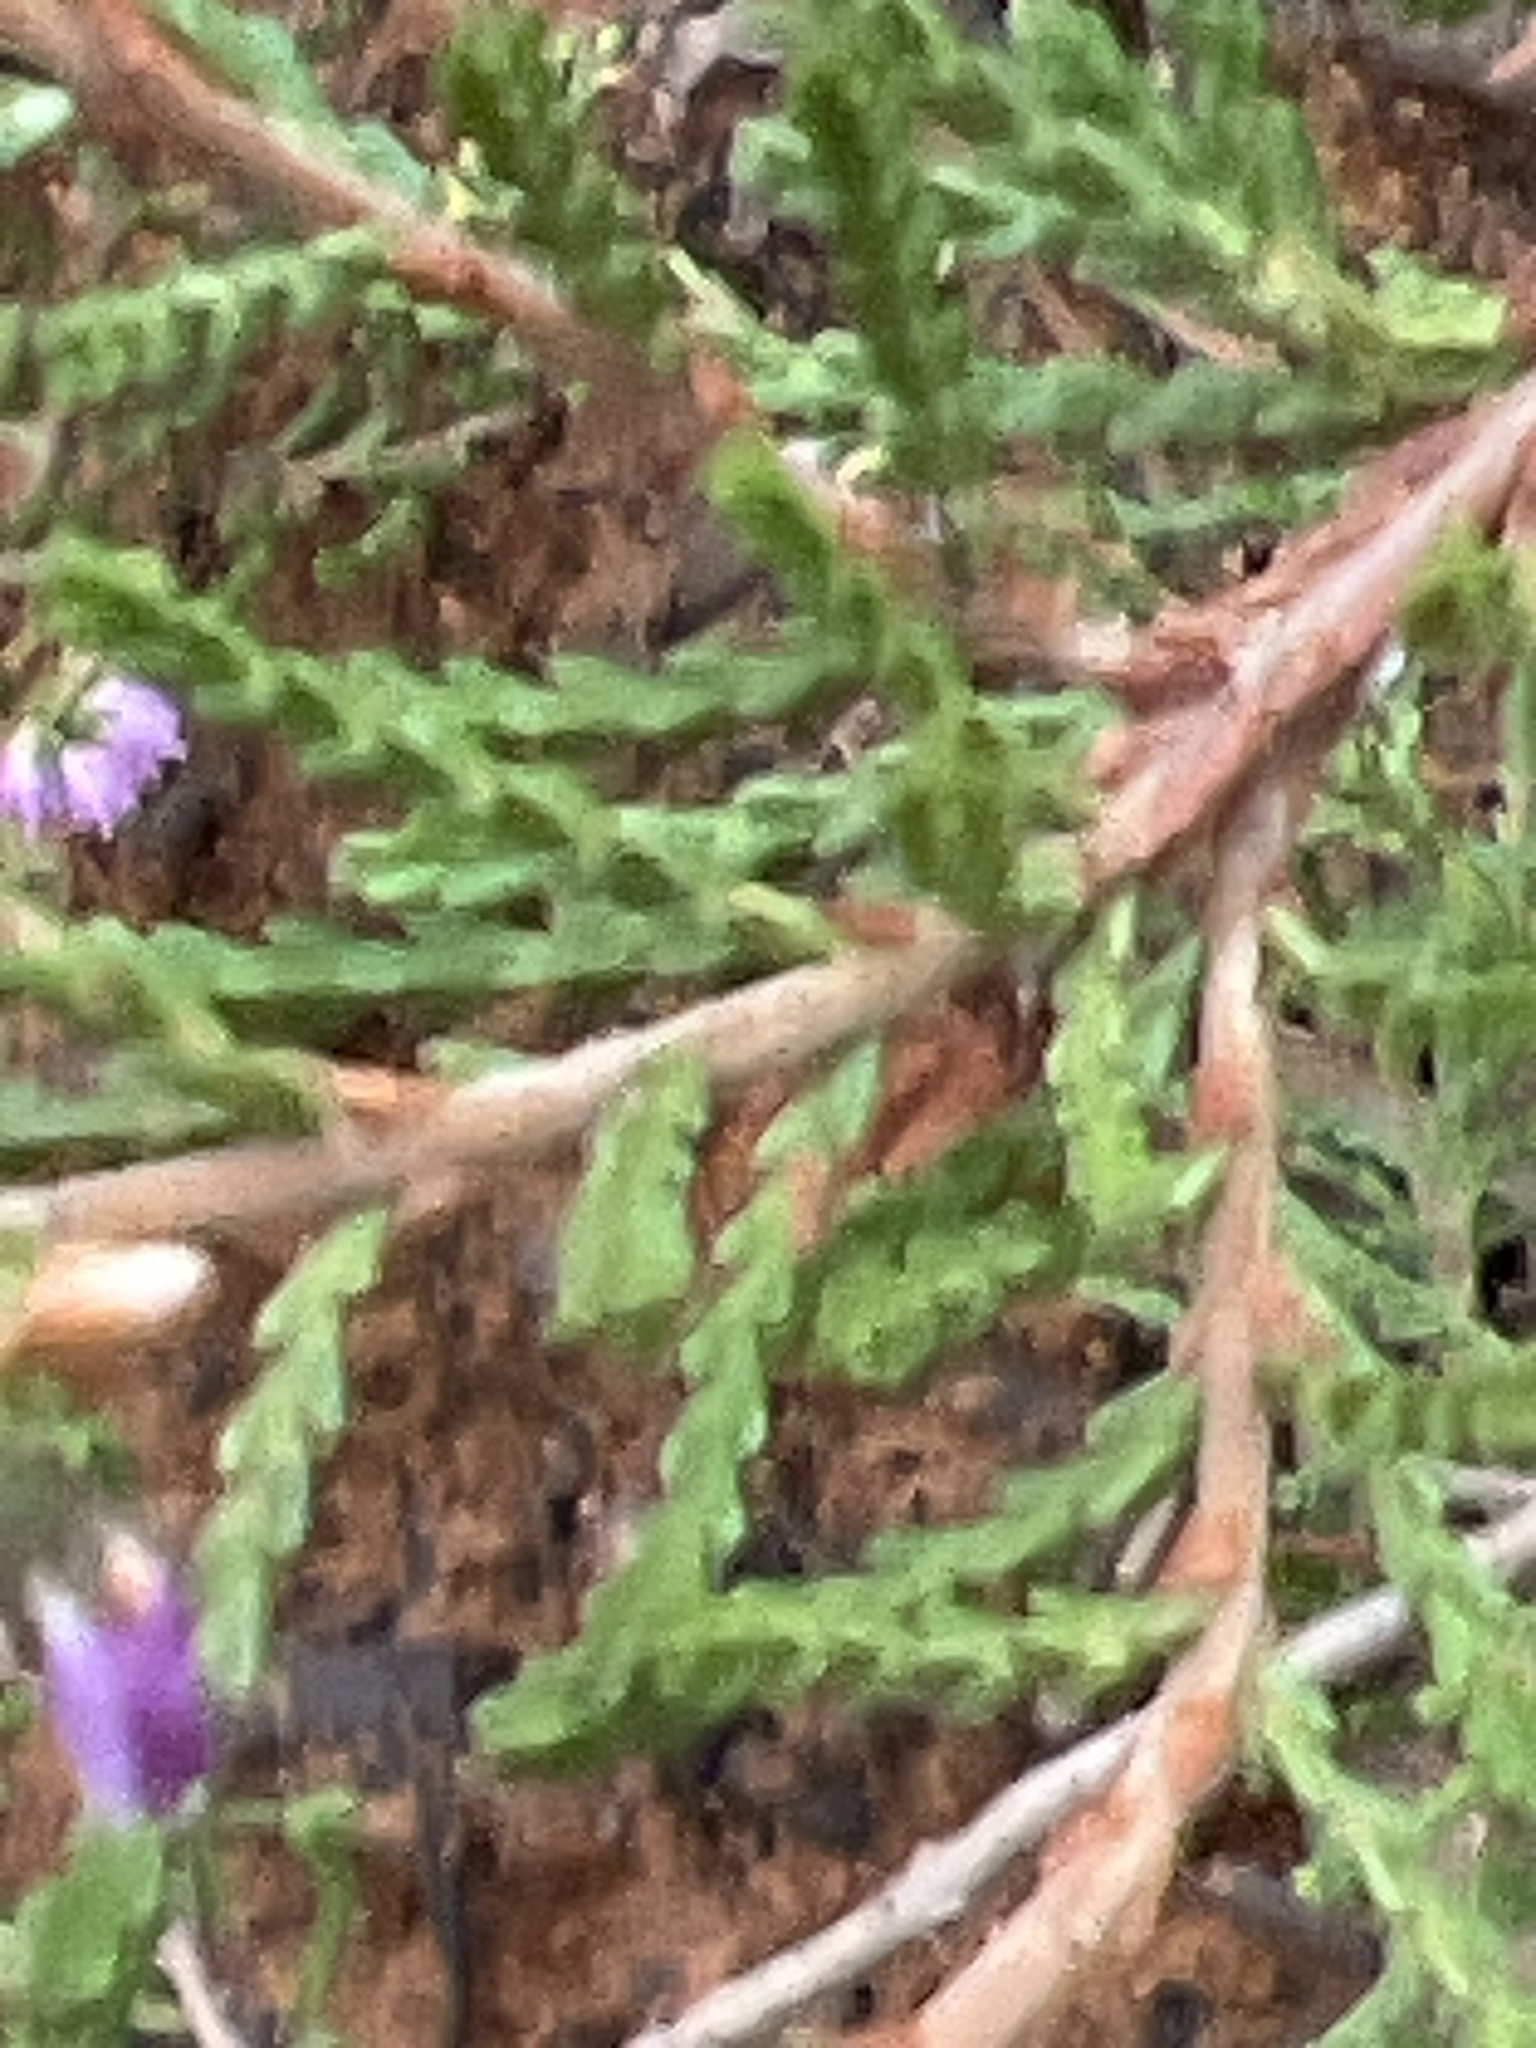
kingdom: Plantae
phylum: Tracheophyta
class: Magnoliopsida
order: Ericales
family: Ericaceae
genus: Calluna
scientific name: Calluna vulgaris
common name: Heather
